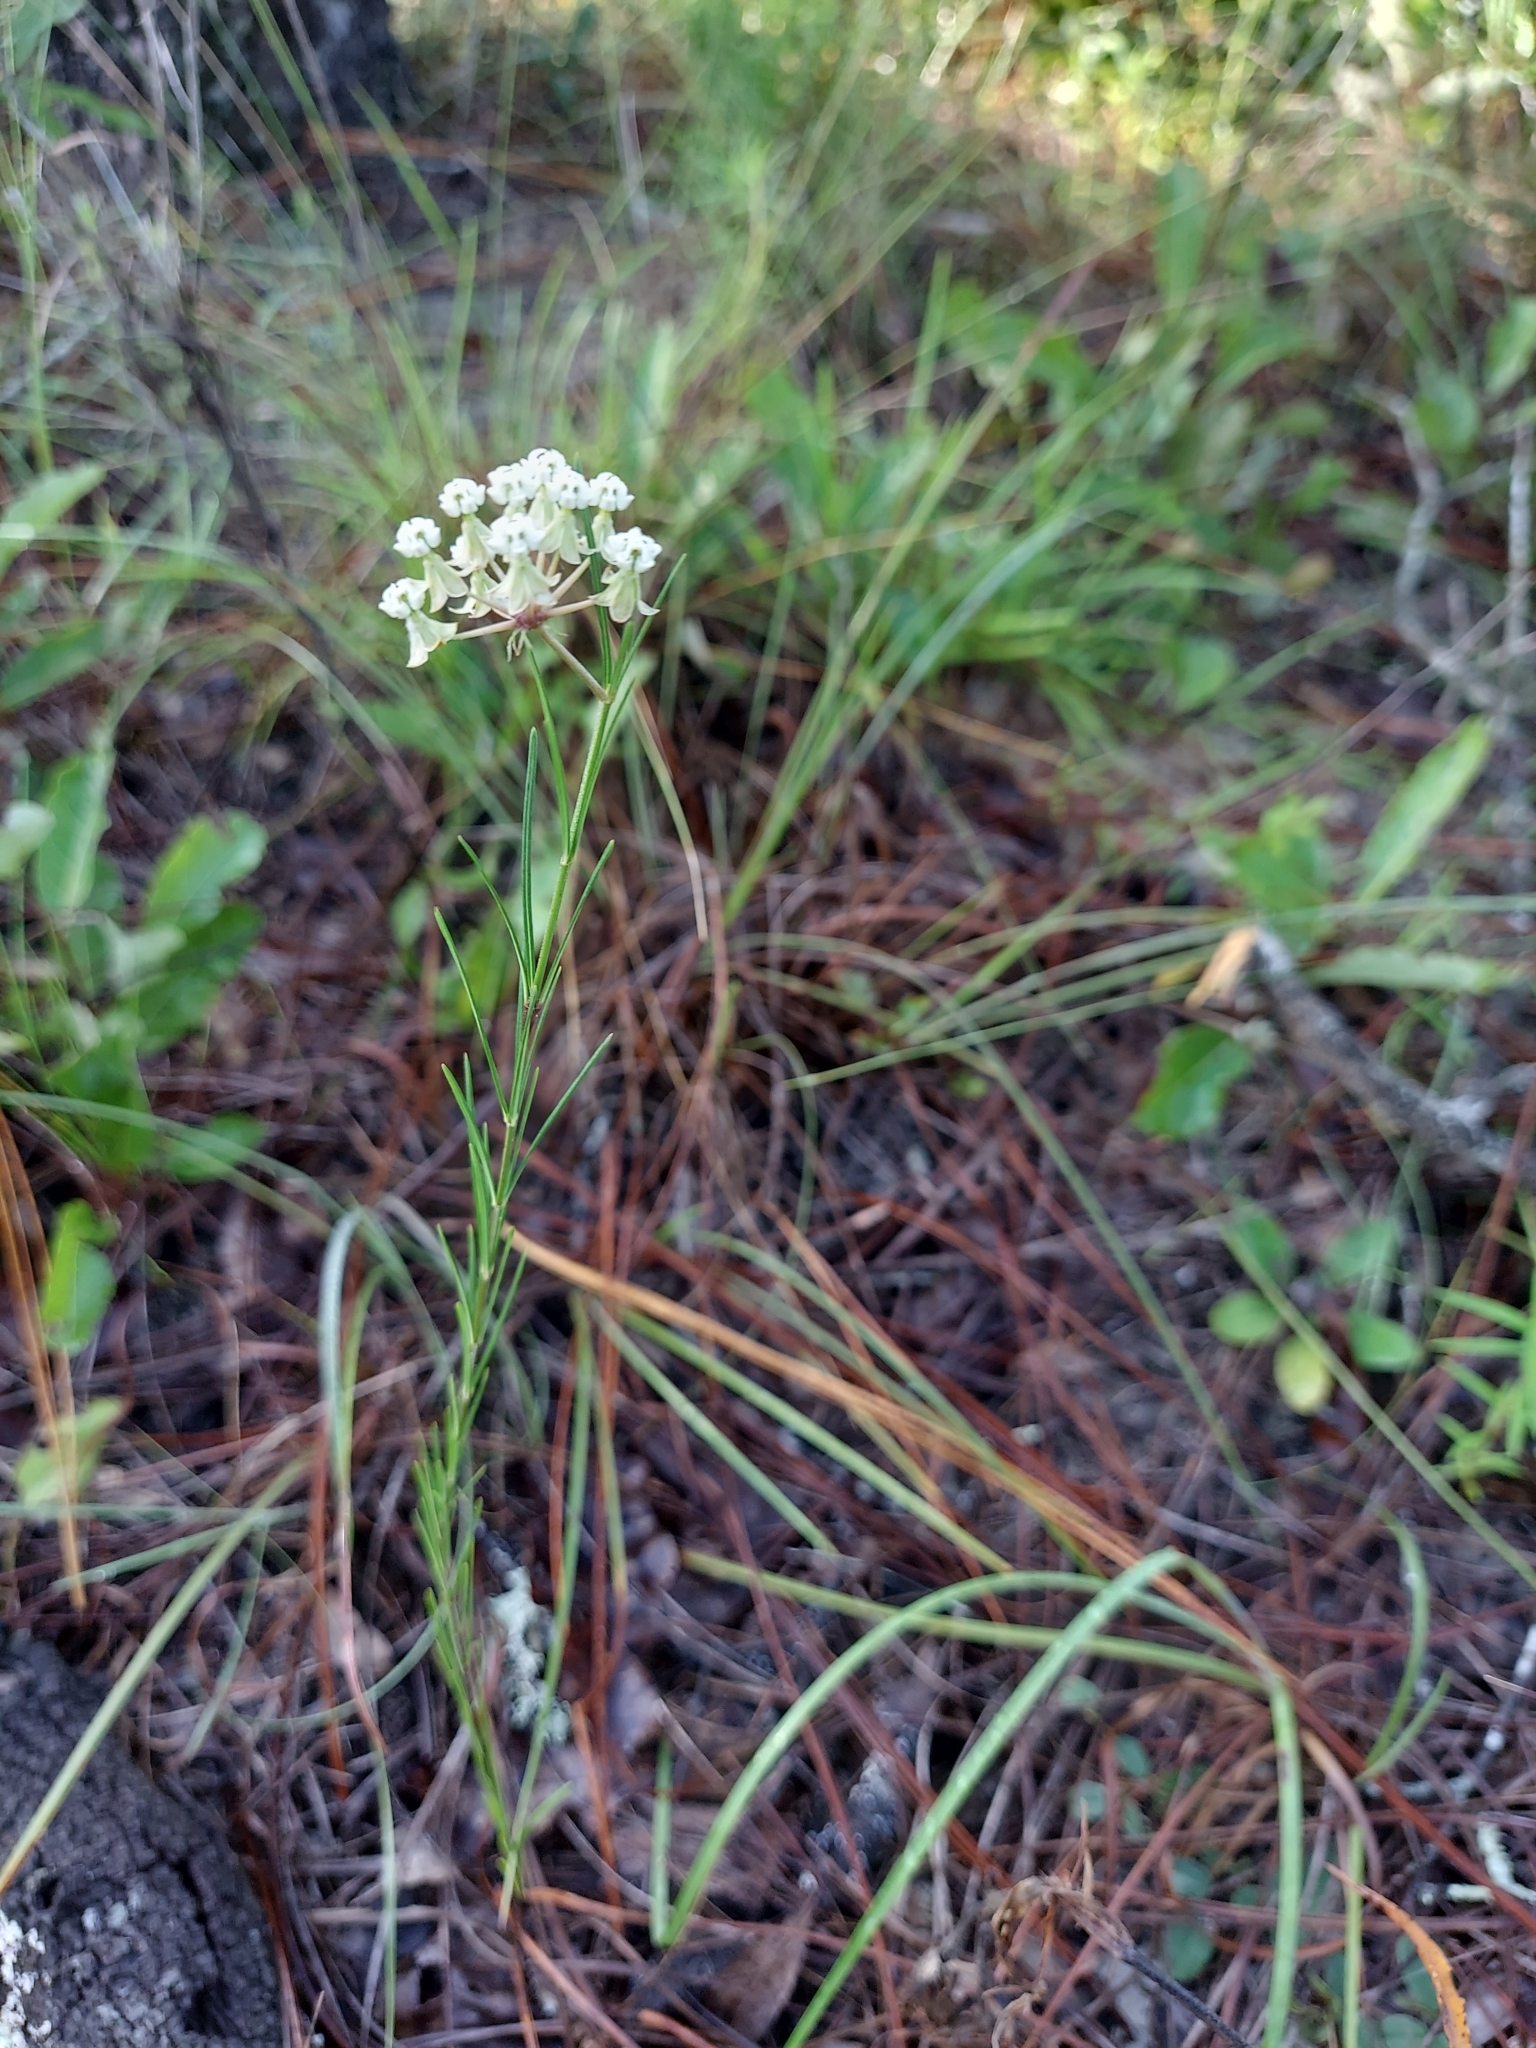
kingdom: Plantae
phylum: Tracheophyta
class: Magnoliopsida
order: Gentianales
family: Apocynaceae
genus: Asclepias
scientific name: Asclepias verticillata
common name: Eastern whorled milkweed
